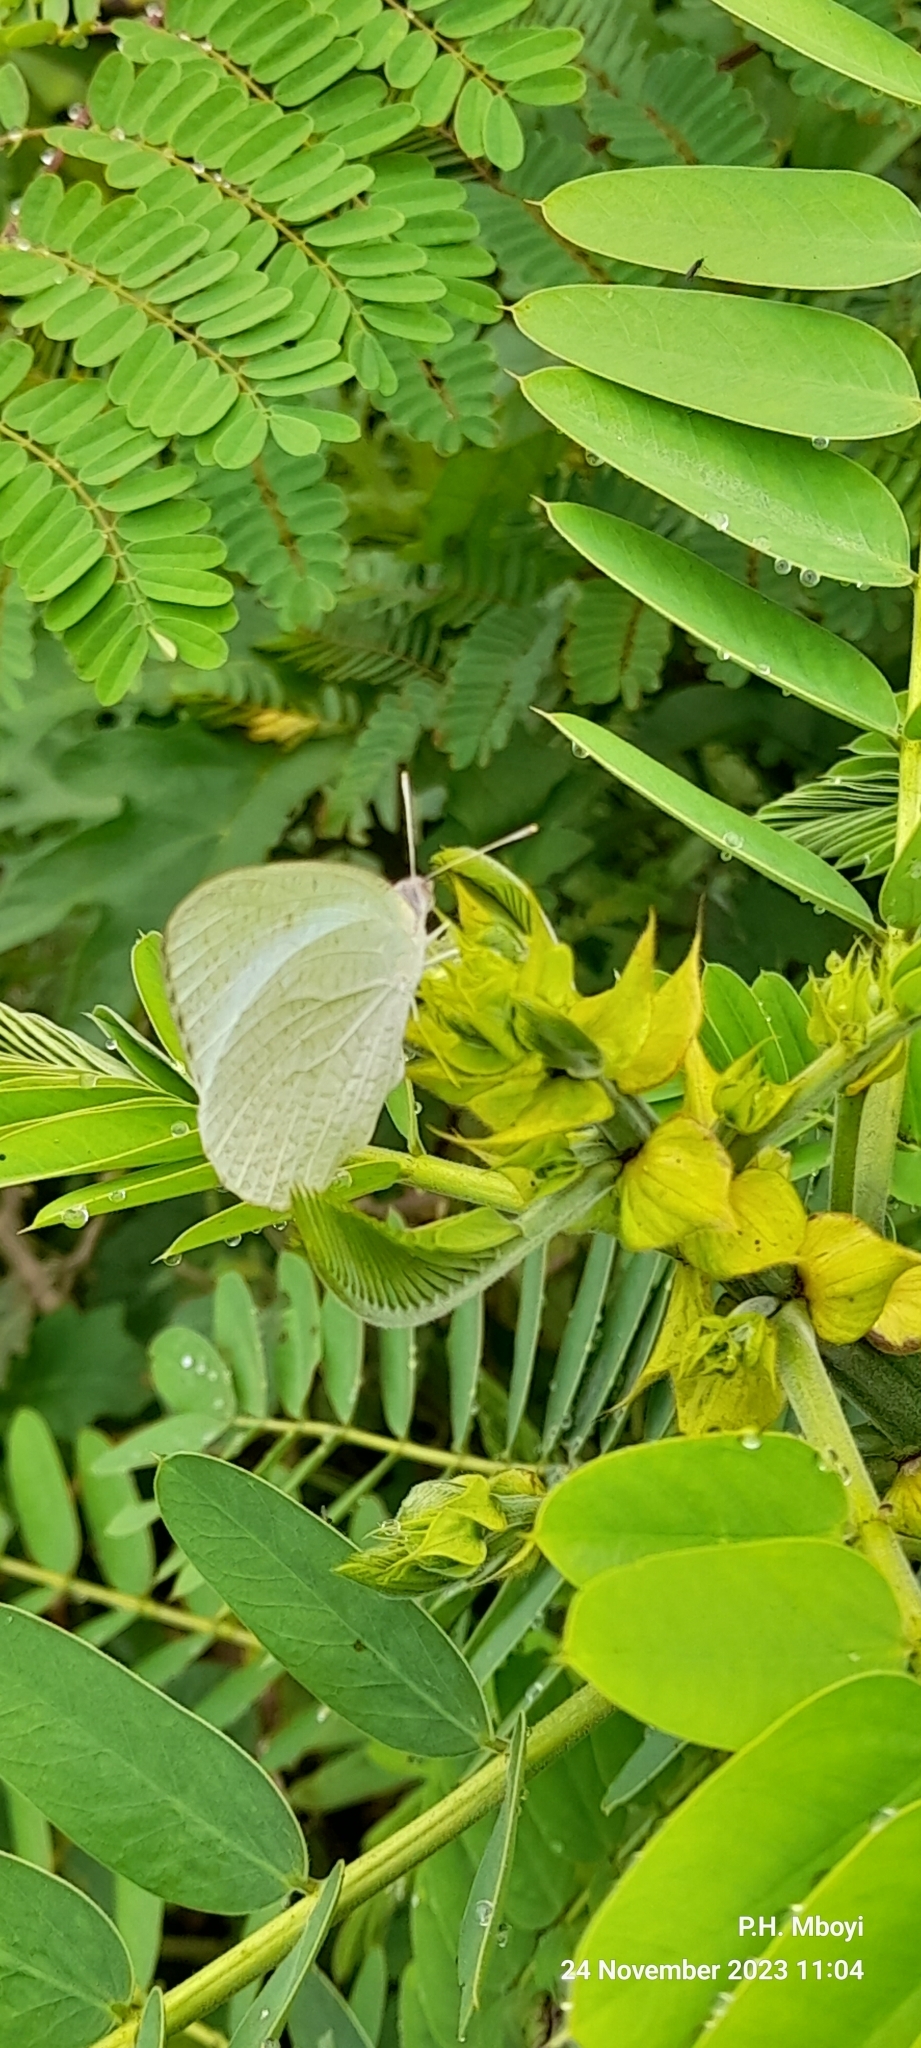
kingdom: Animalia
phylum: Arthropoda
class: Insecta
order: Lepidoptera
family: Pieridae
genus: Catopsilia
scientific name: Catopsilia florella
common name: African migrant
